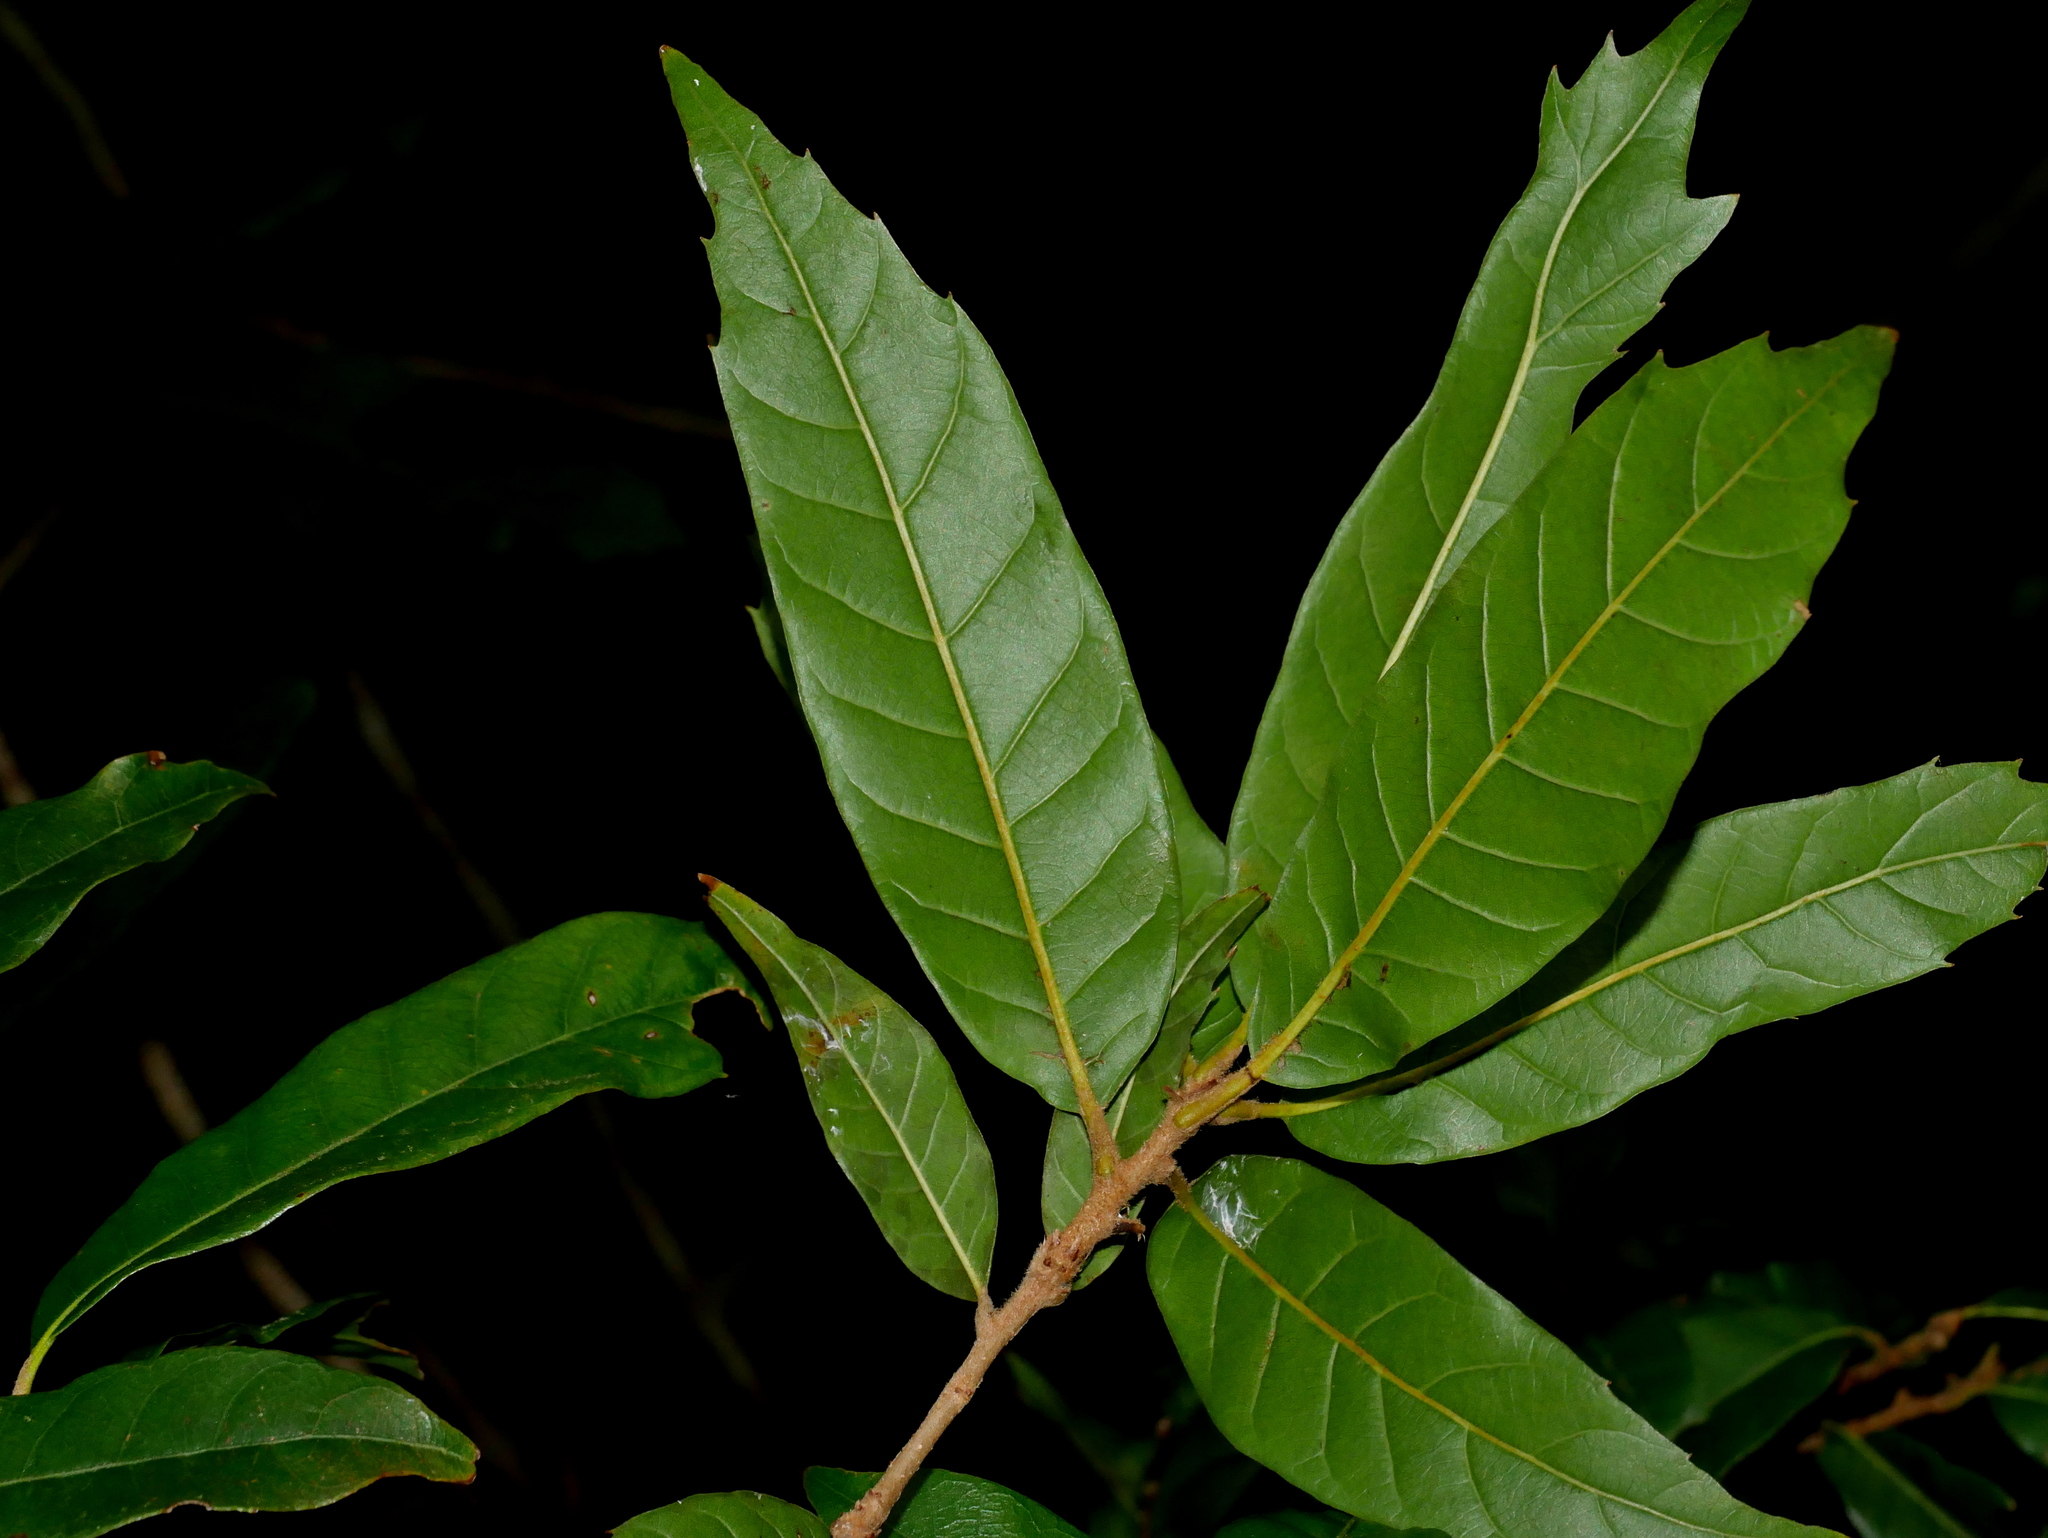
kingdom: Plantae
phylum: Tracheophyta
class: Magnoliopsida
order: Fagales
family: Fagaceae
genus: Quercus
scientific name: Quercus tatakaensis
